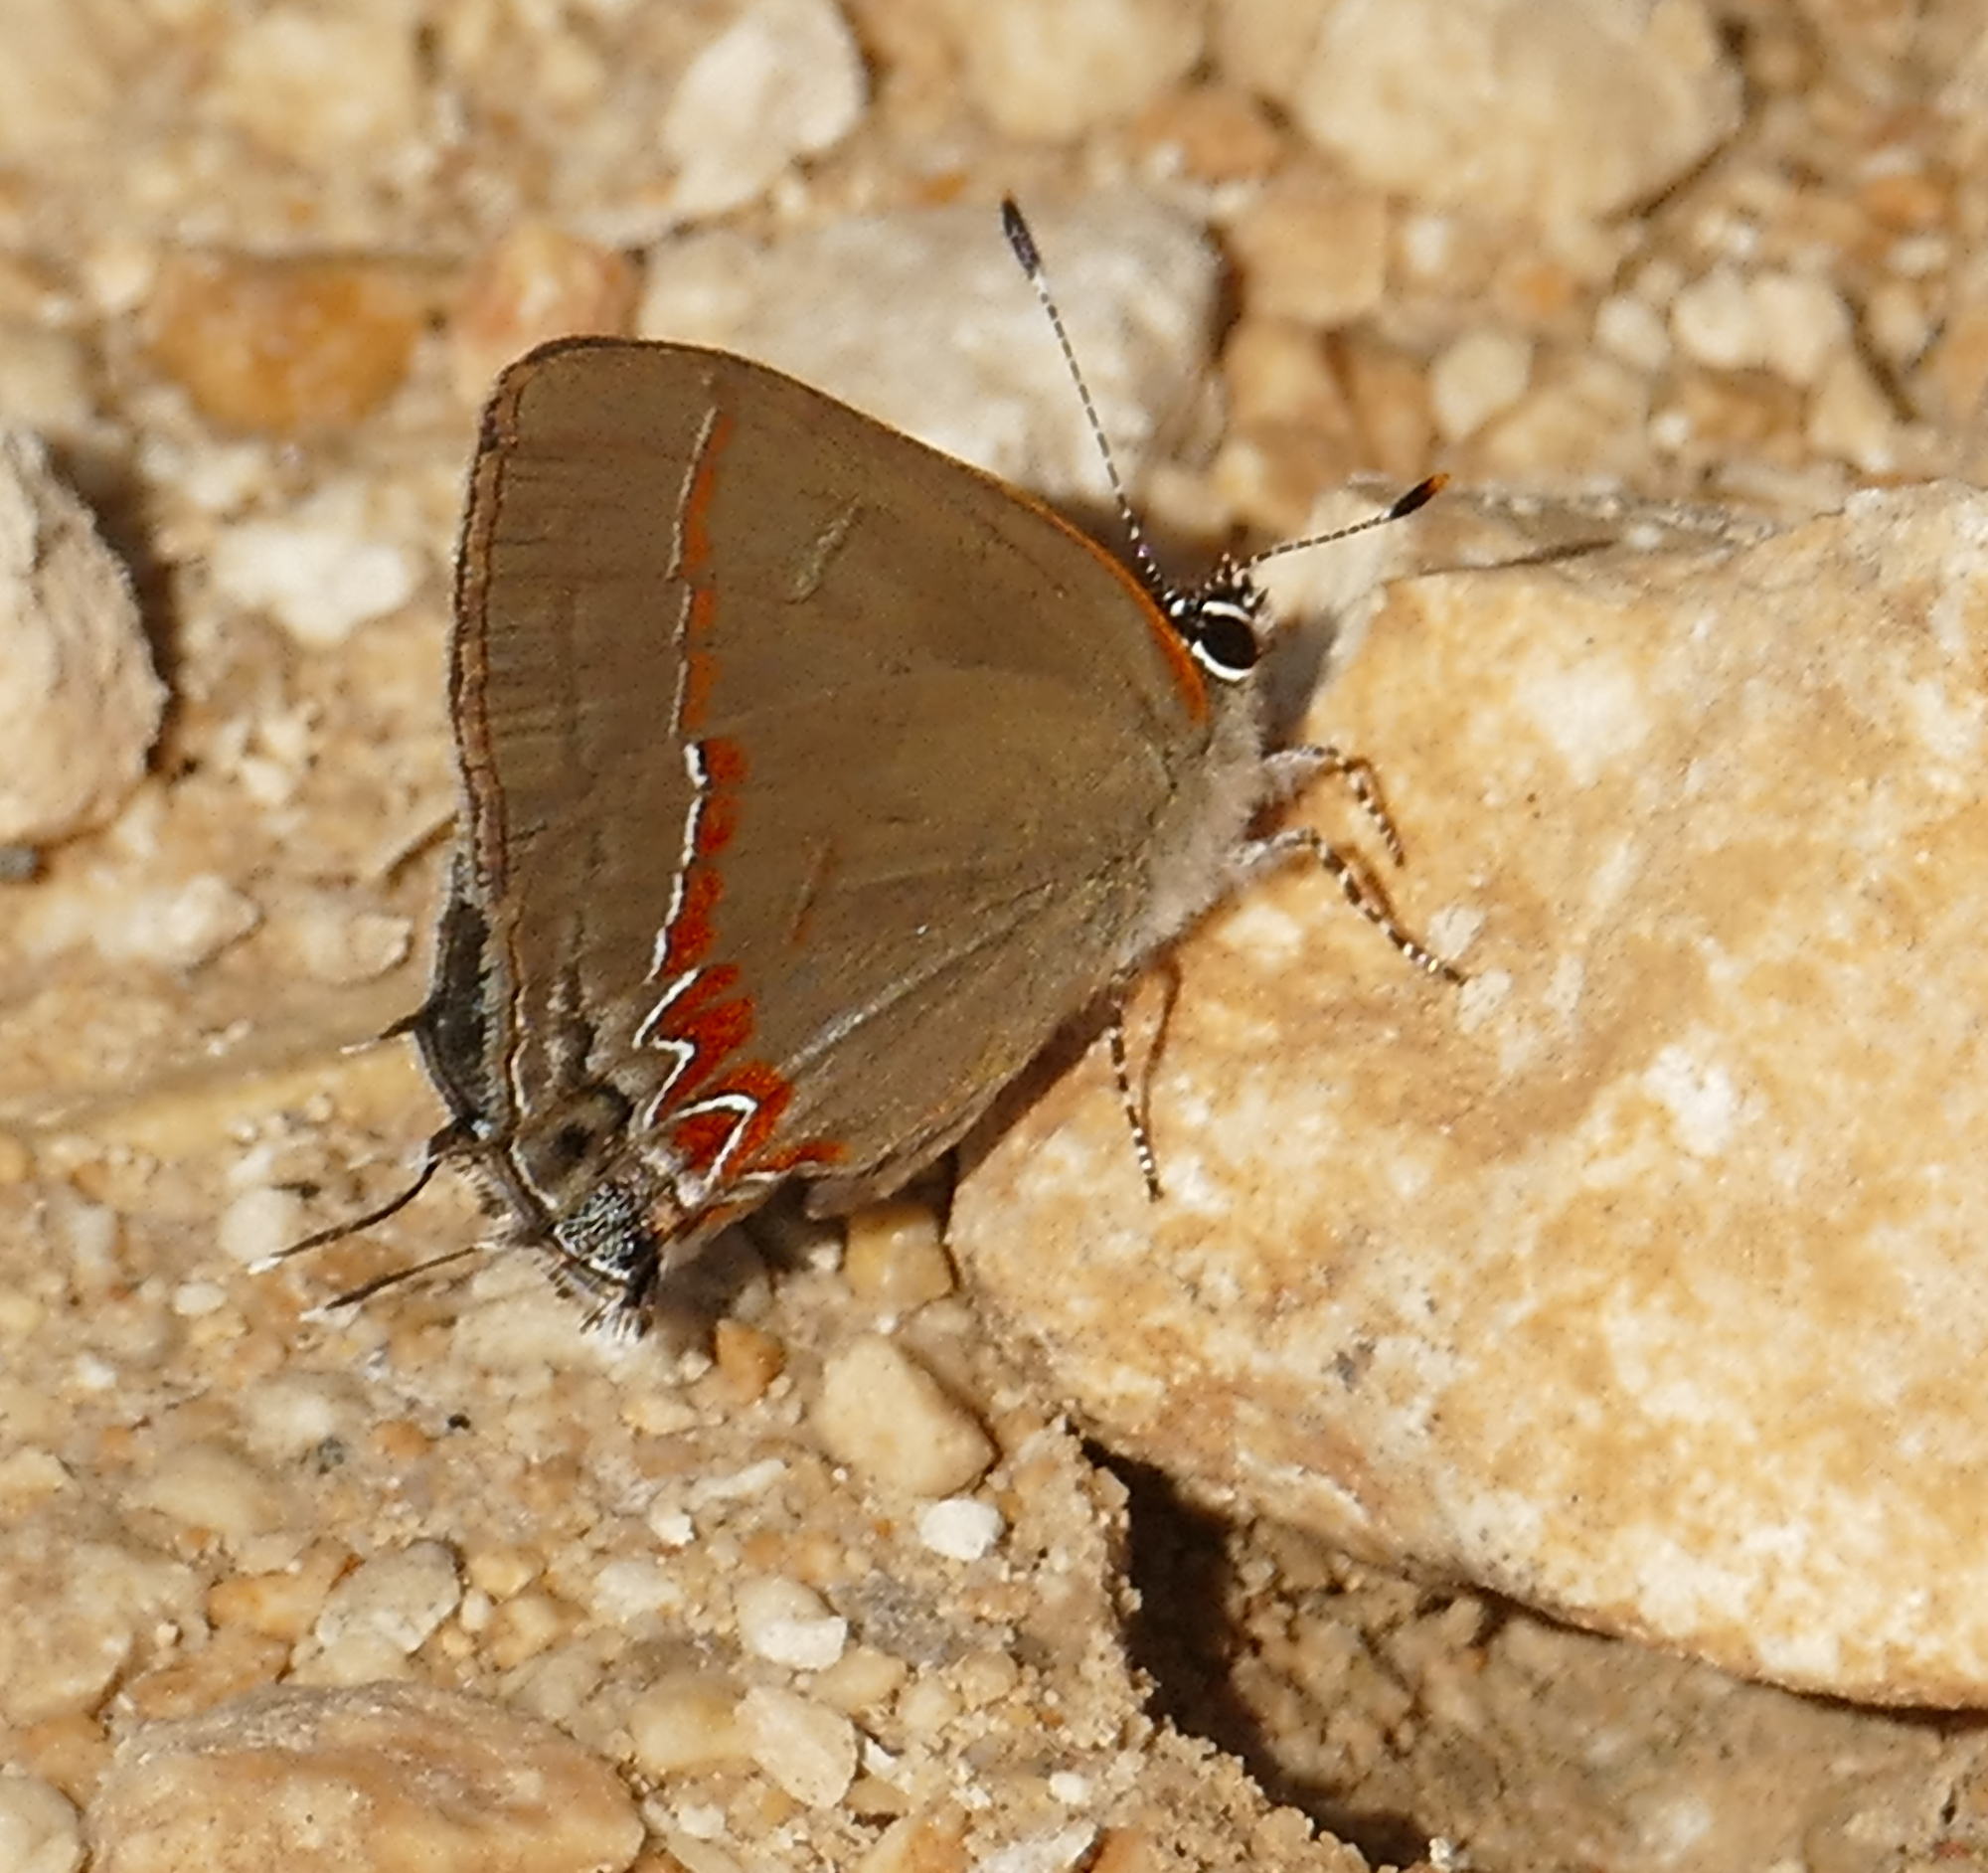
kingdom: Animalia
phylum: Arthropoda
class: Insecta
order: Lepidoptera
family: Lycaenidae
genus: Calycopis
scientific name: Calycopis cecrops
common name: Red-banded hairstreak
